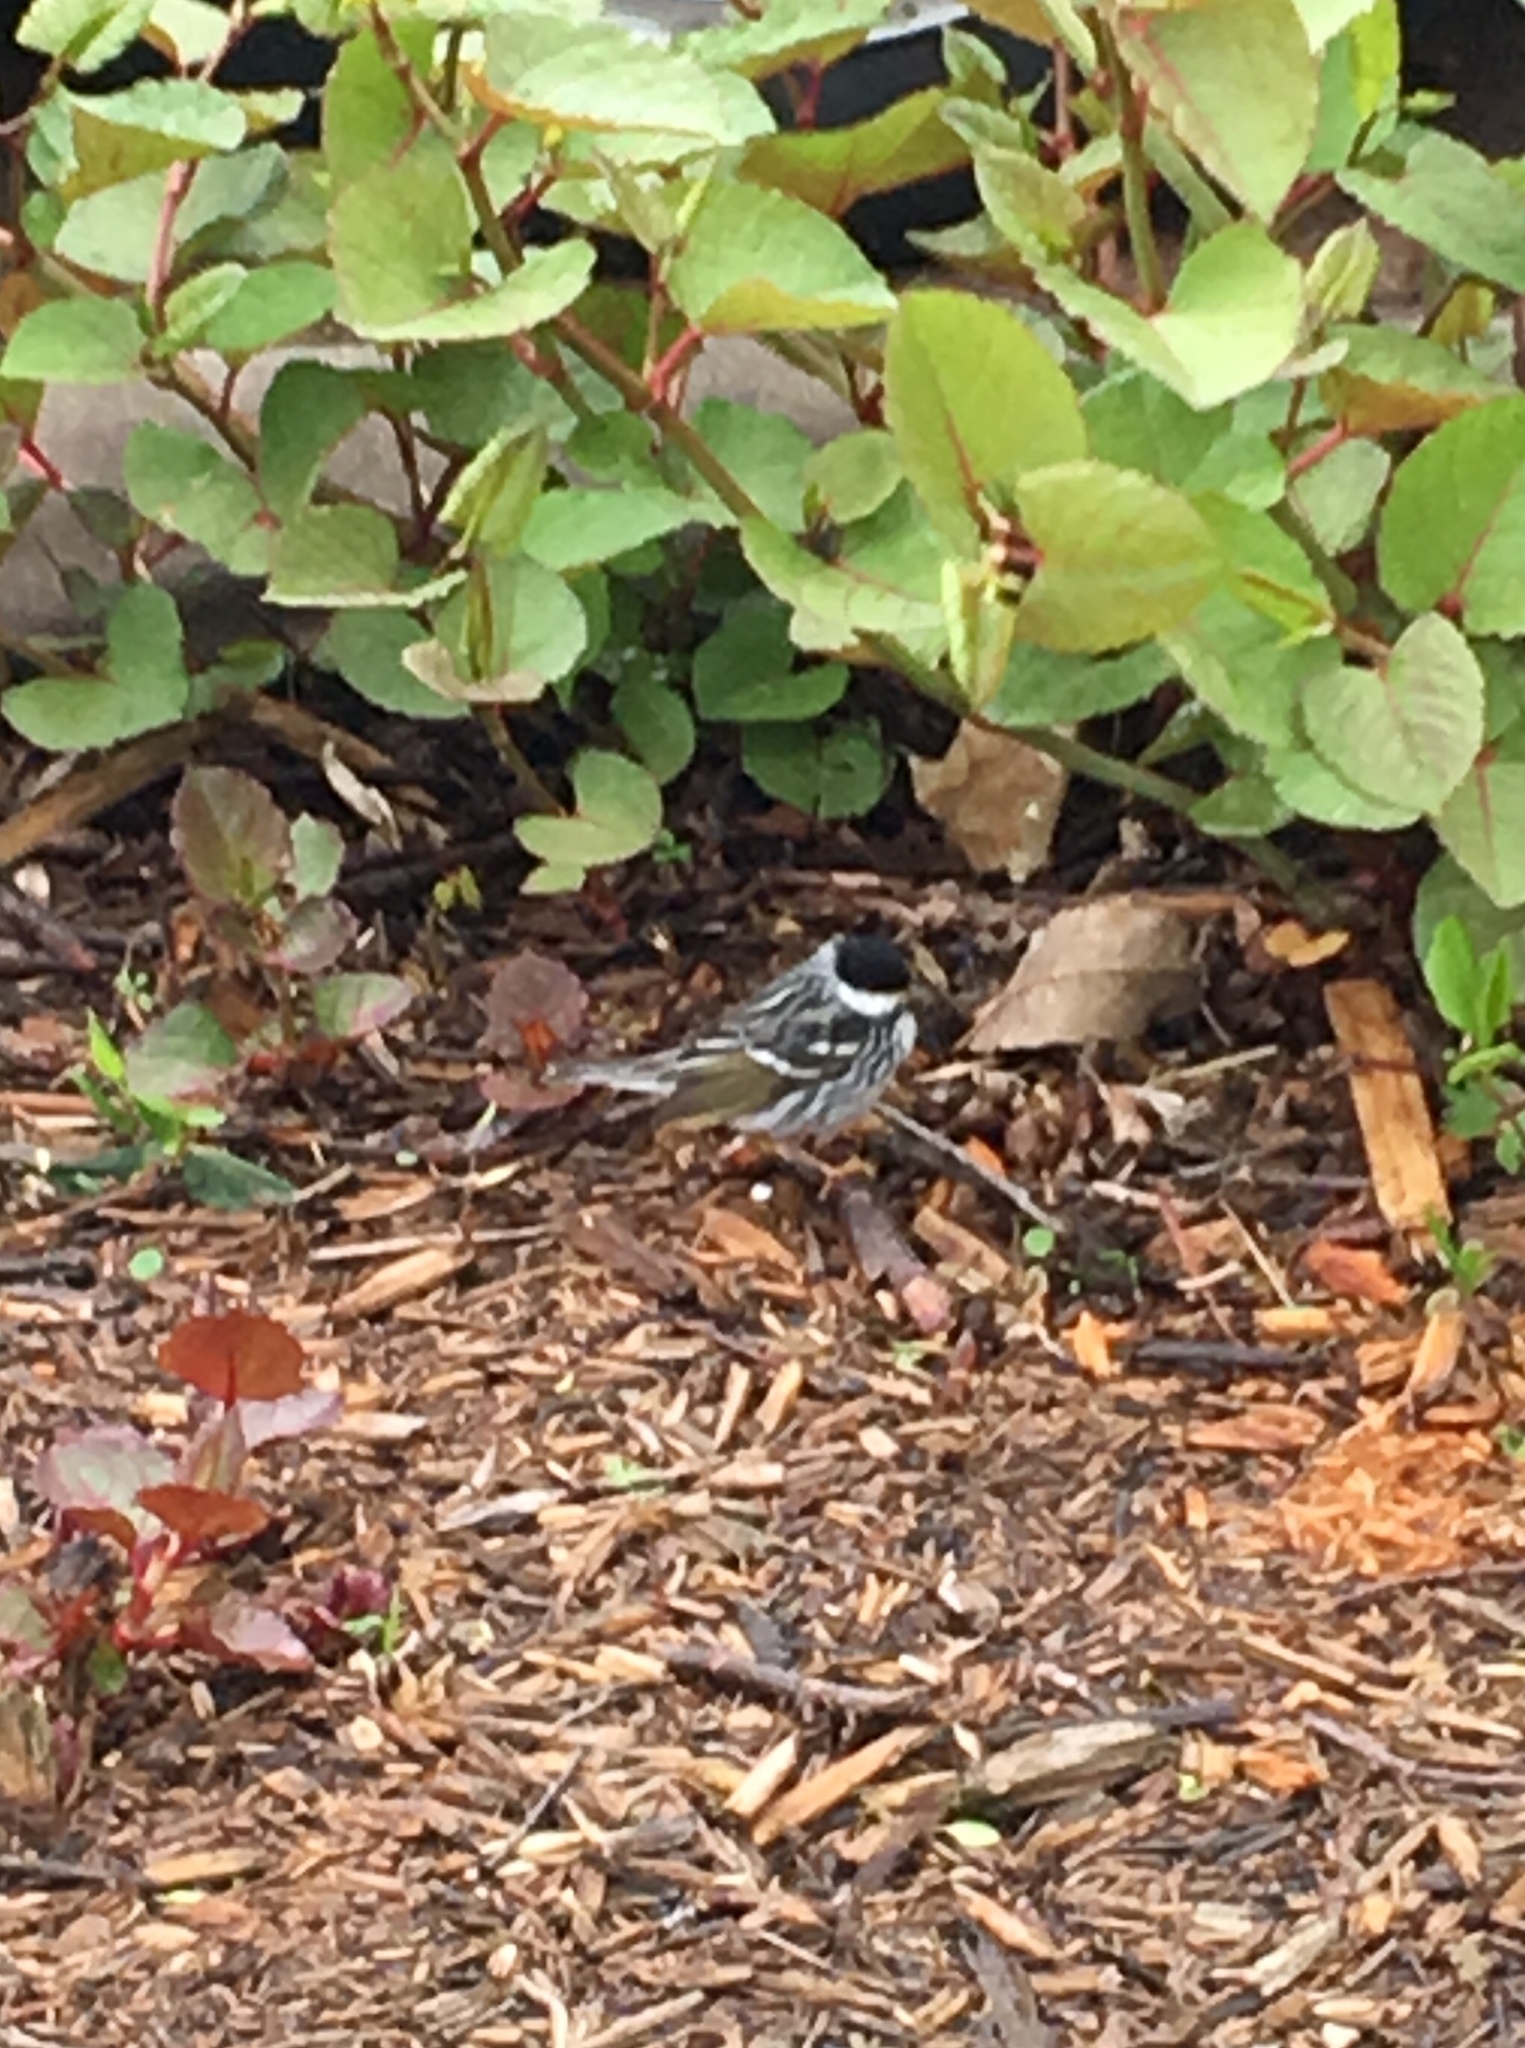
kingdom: Animalia
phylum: Chordata
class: Aves
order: Passeriformes
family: Parulidae
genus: Setophaga
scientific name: Setophaga striata
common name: Blackpoll warbler
